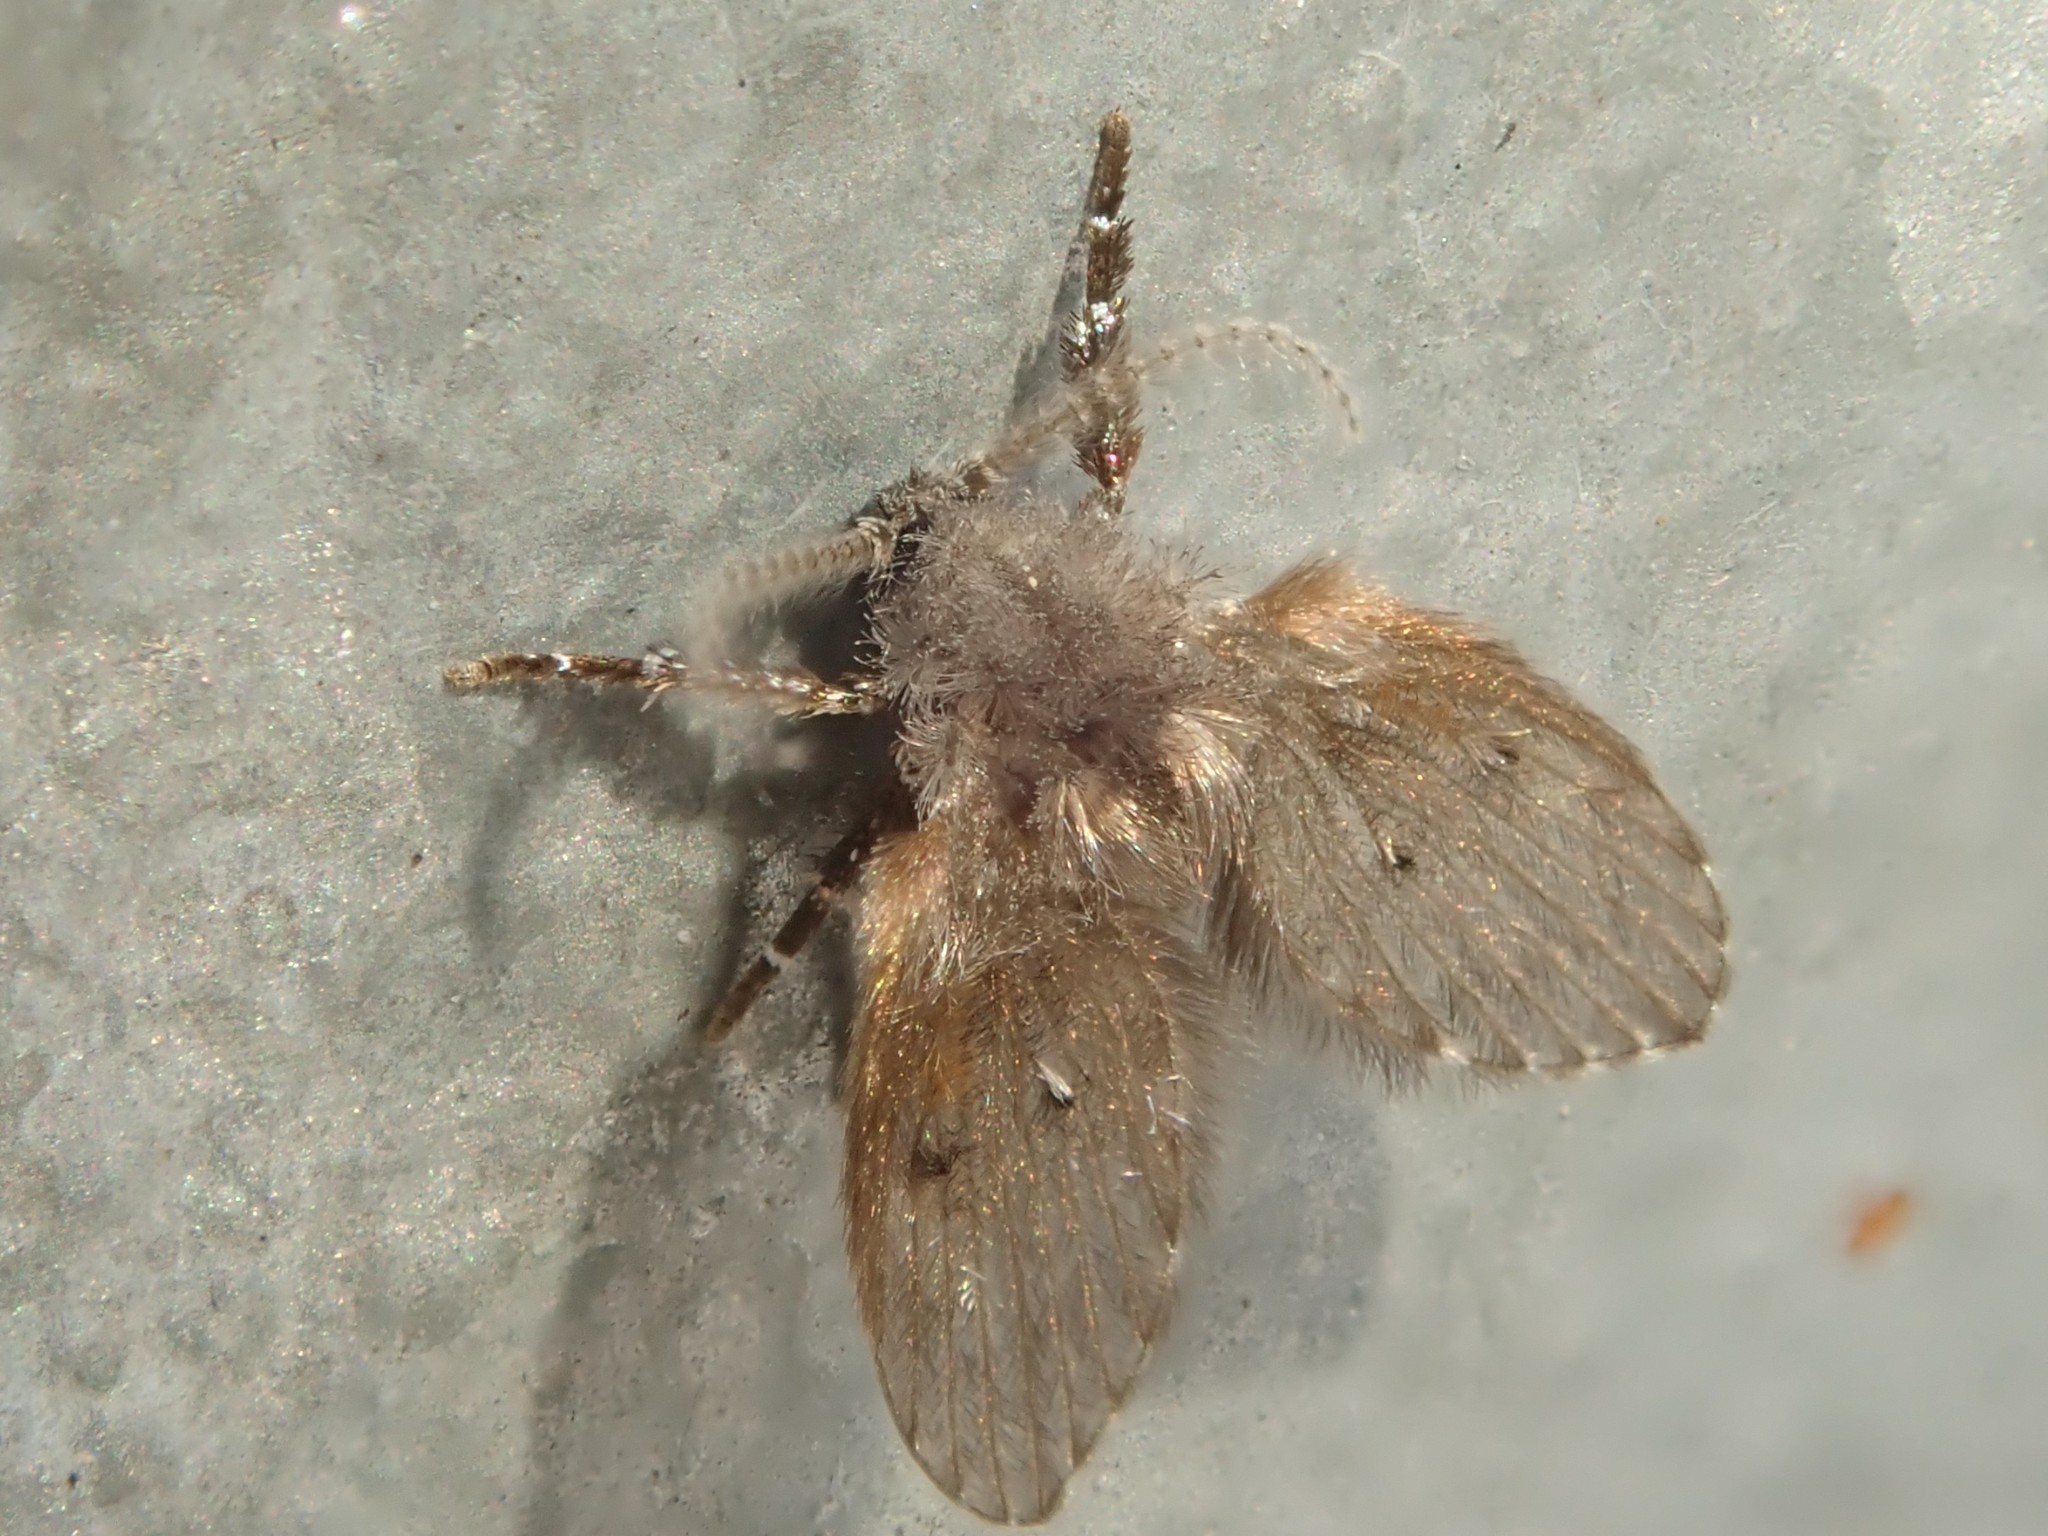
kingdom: Animalia
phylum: Arthropoda
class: Insecta
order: Diptera
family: Psychodidae
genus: Clogmia
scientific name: Clogmia albipunctatus
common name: White-spotted moth fly
